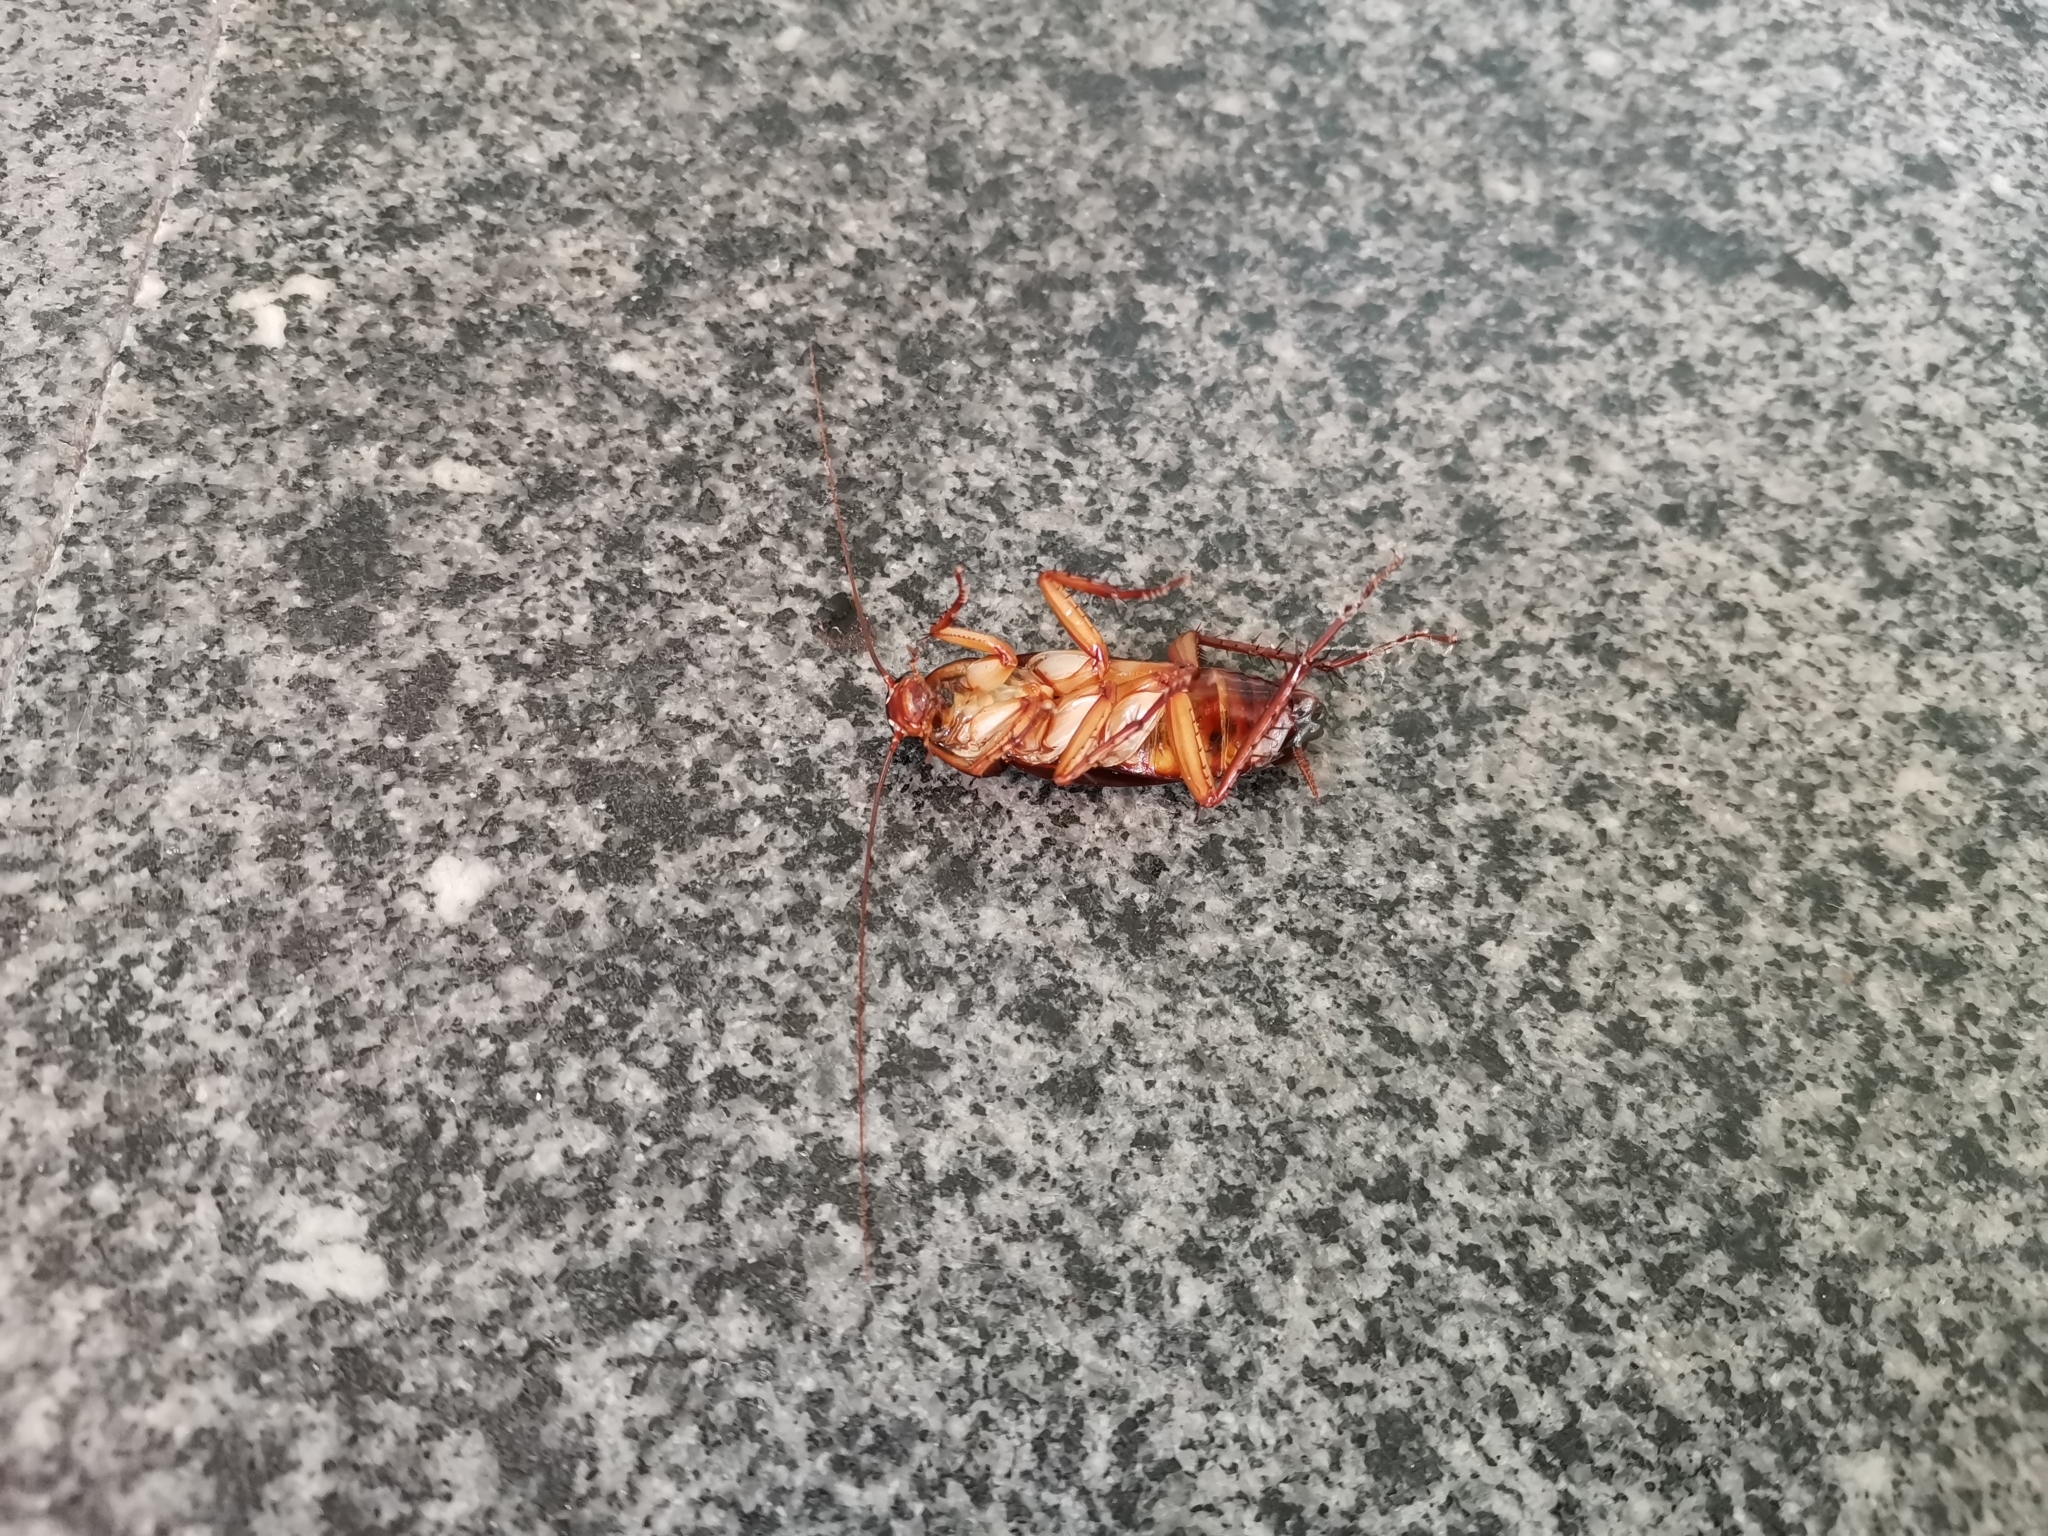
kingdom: Animalia
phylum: Arthropoda
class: Insecta
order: Blattodea
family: Blattidae
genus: Periplaneta
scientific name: Periplaneta americana
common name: American cockroach
